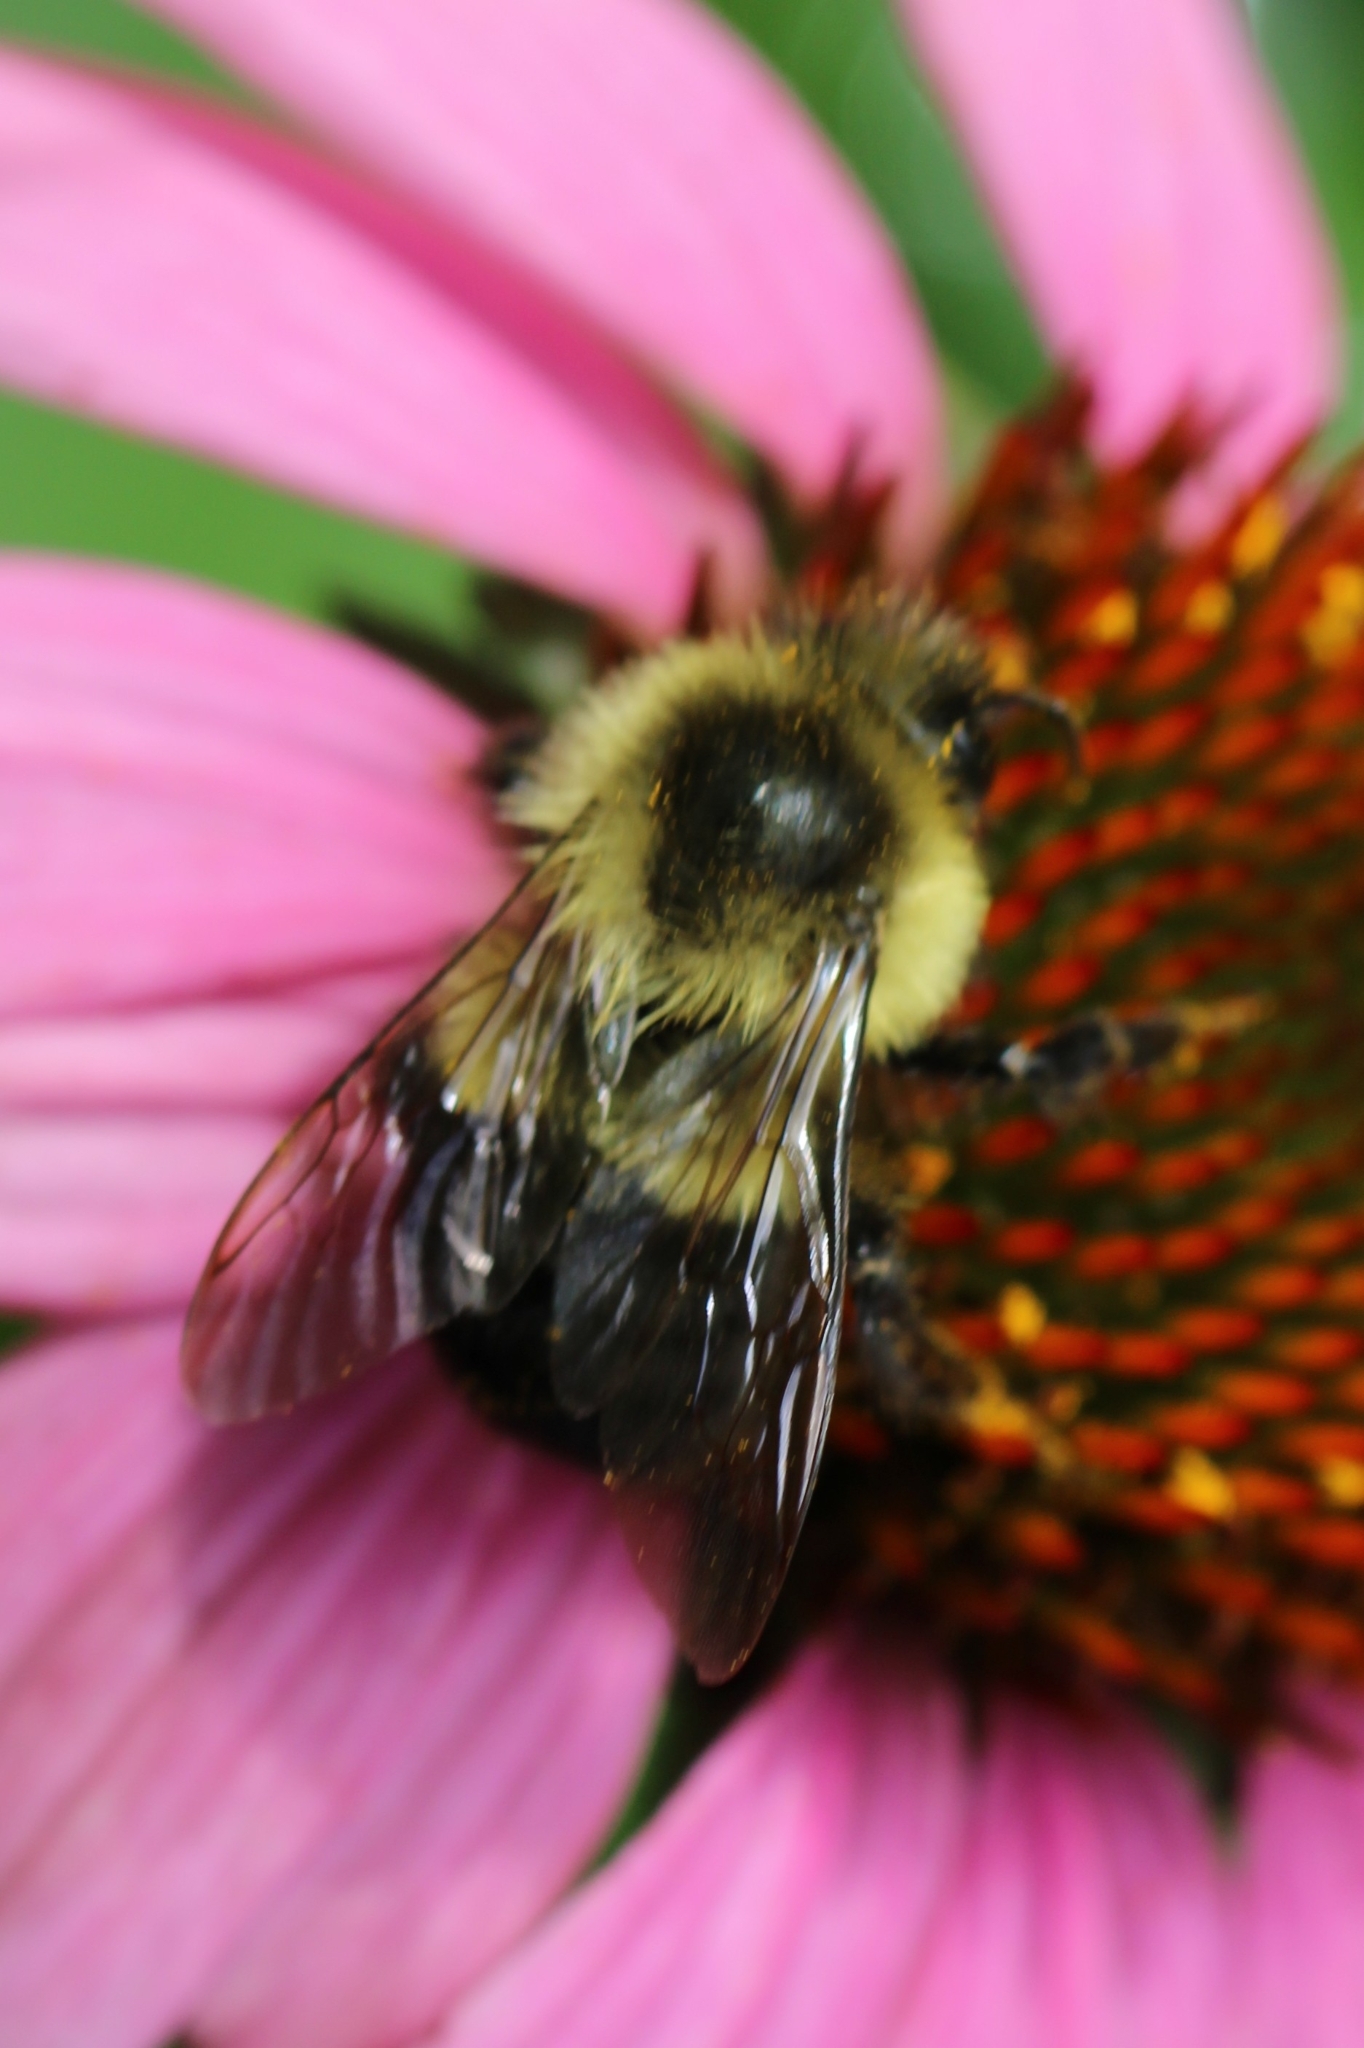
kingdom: Animalia
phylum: Arthropoda
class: Insecta
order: Hymenoptera
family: Apidae
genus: Bombus
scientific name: Bombus impatiens
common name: Common eastern bumble bee
